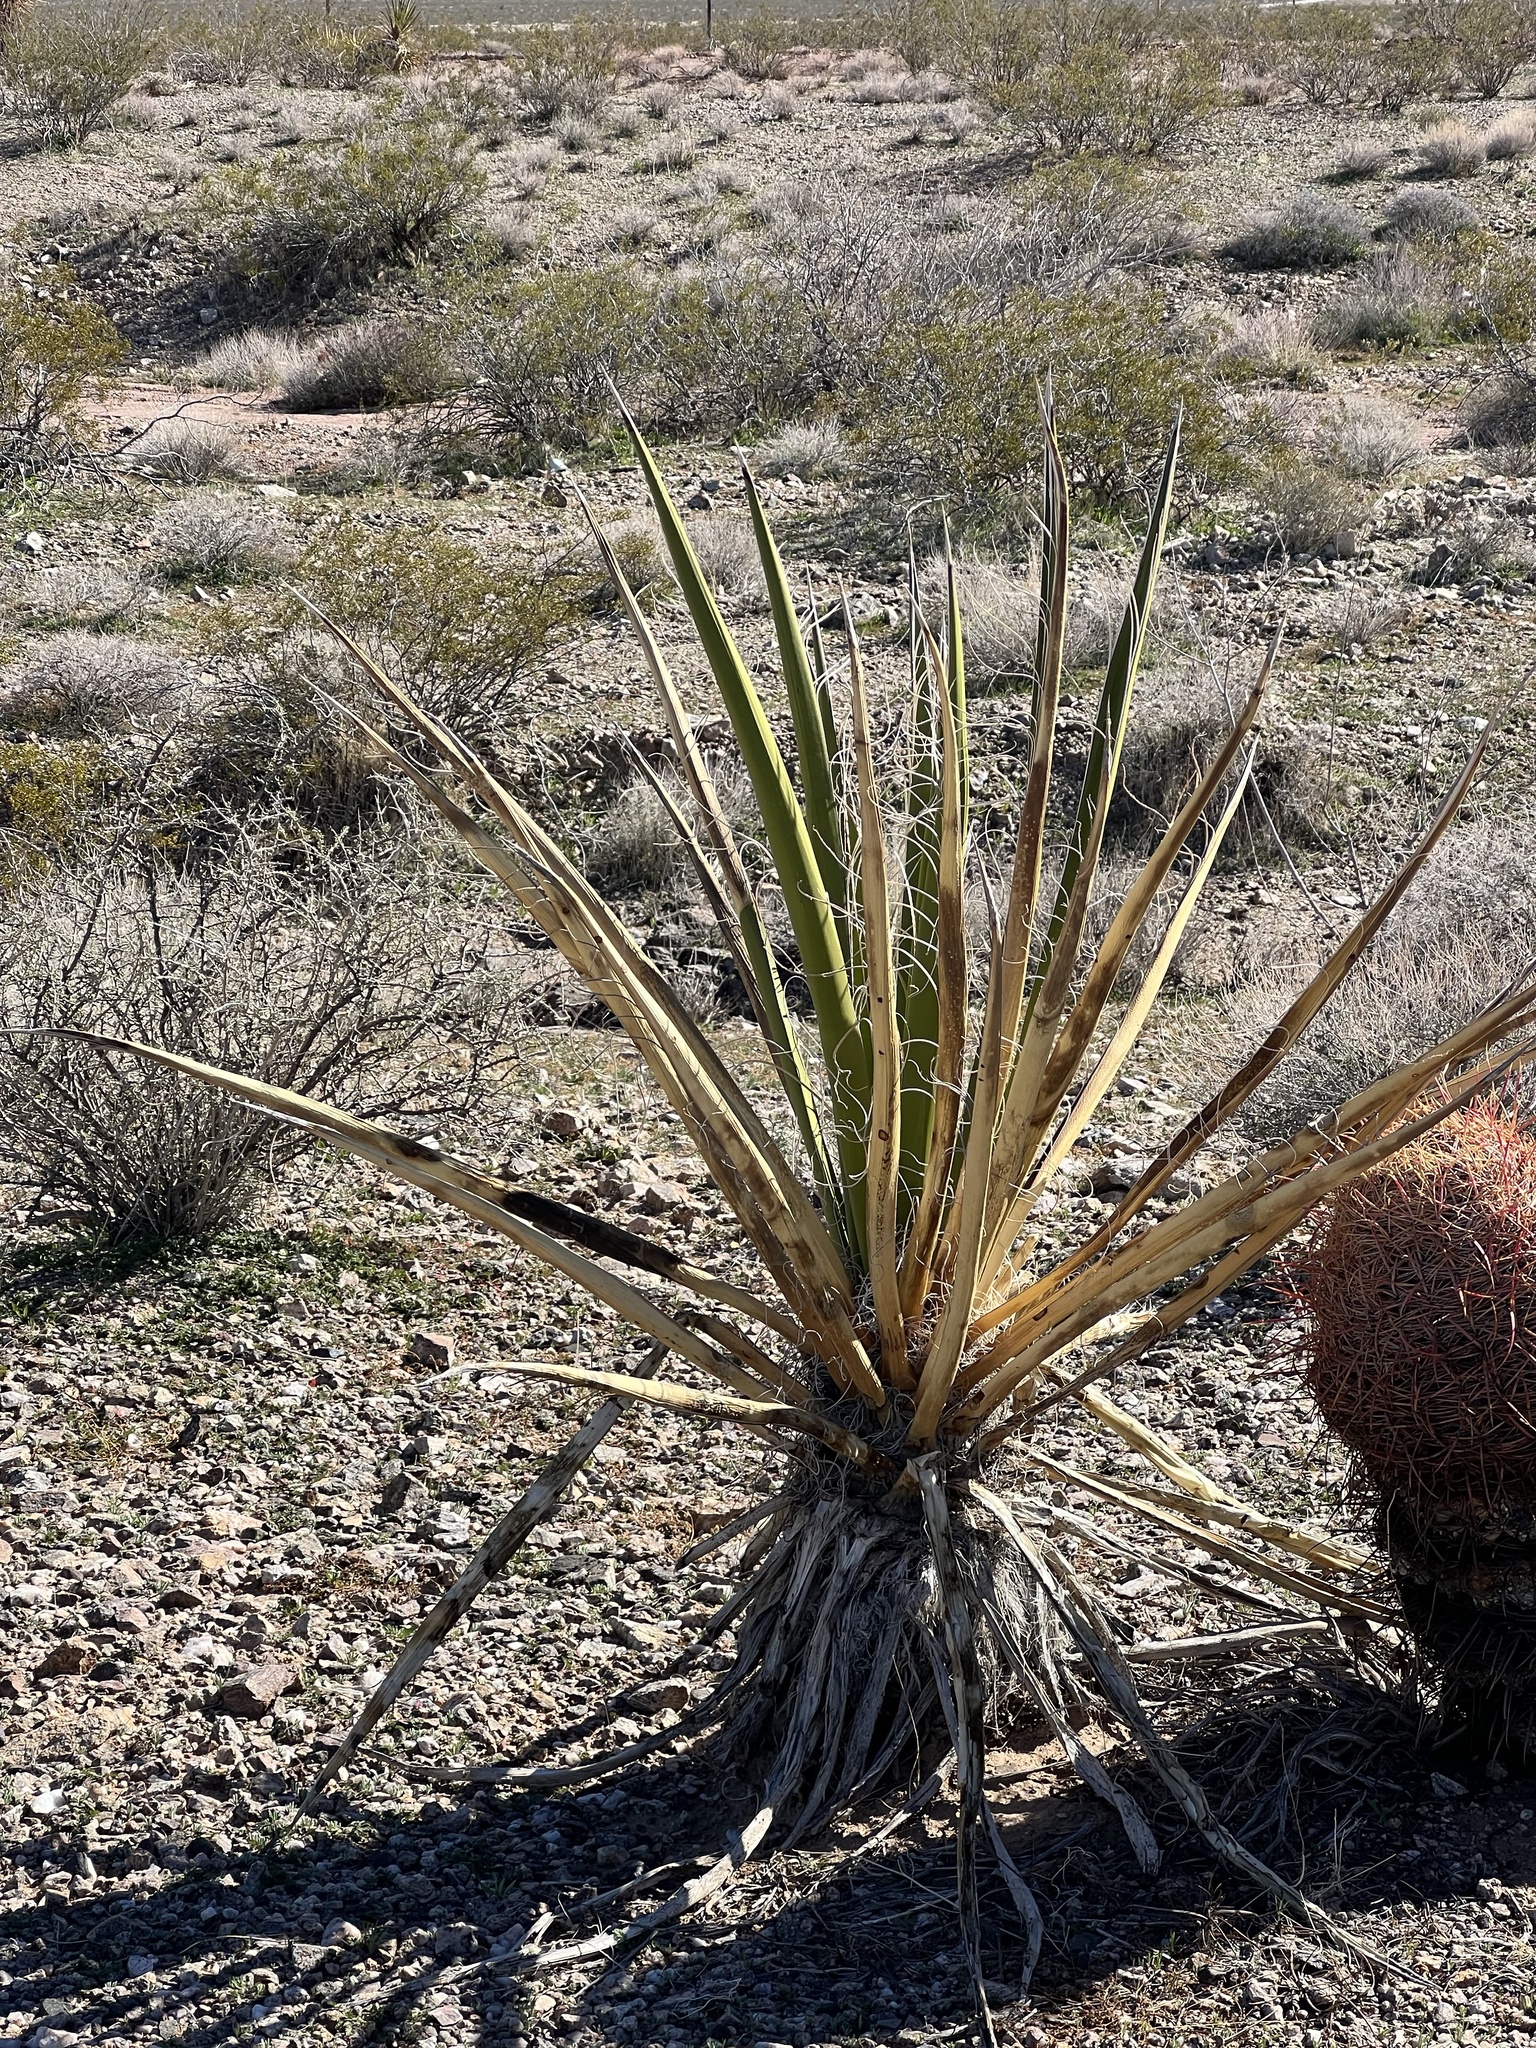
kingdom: Plantae
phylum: Tracheophyta
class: Liliopsida
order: Asparagales
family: Asparagaceae
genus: Yucca
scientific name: Yucca schidigera
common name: Mojave yucca
